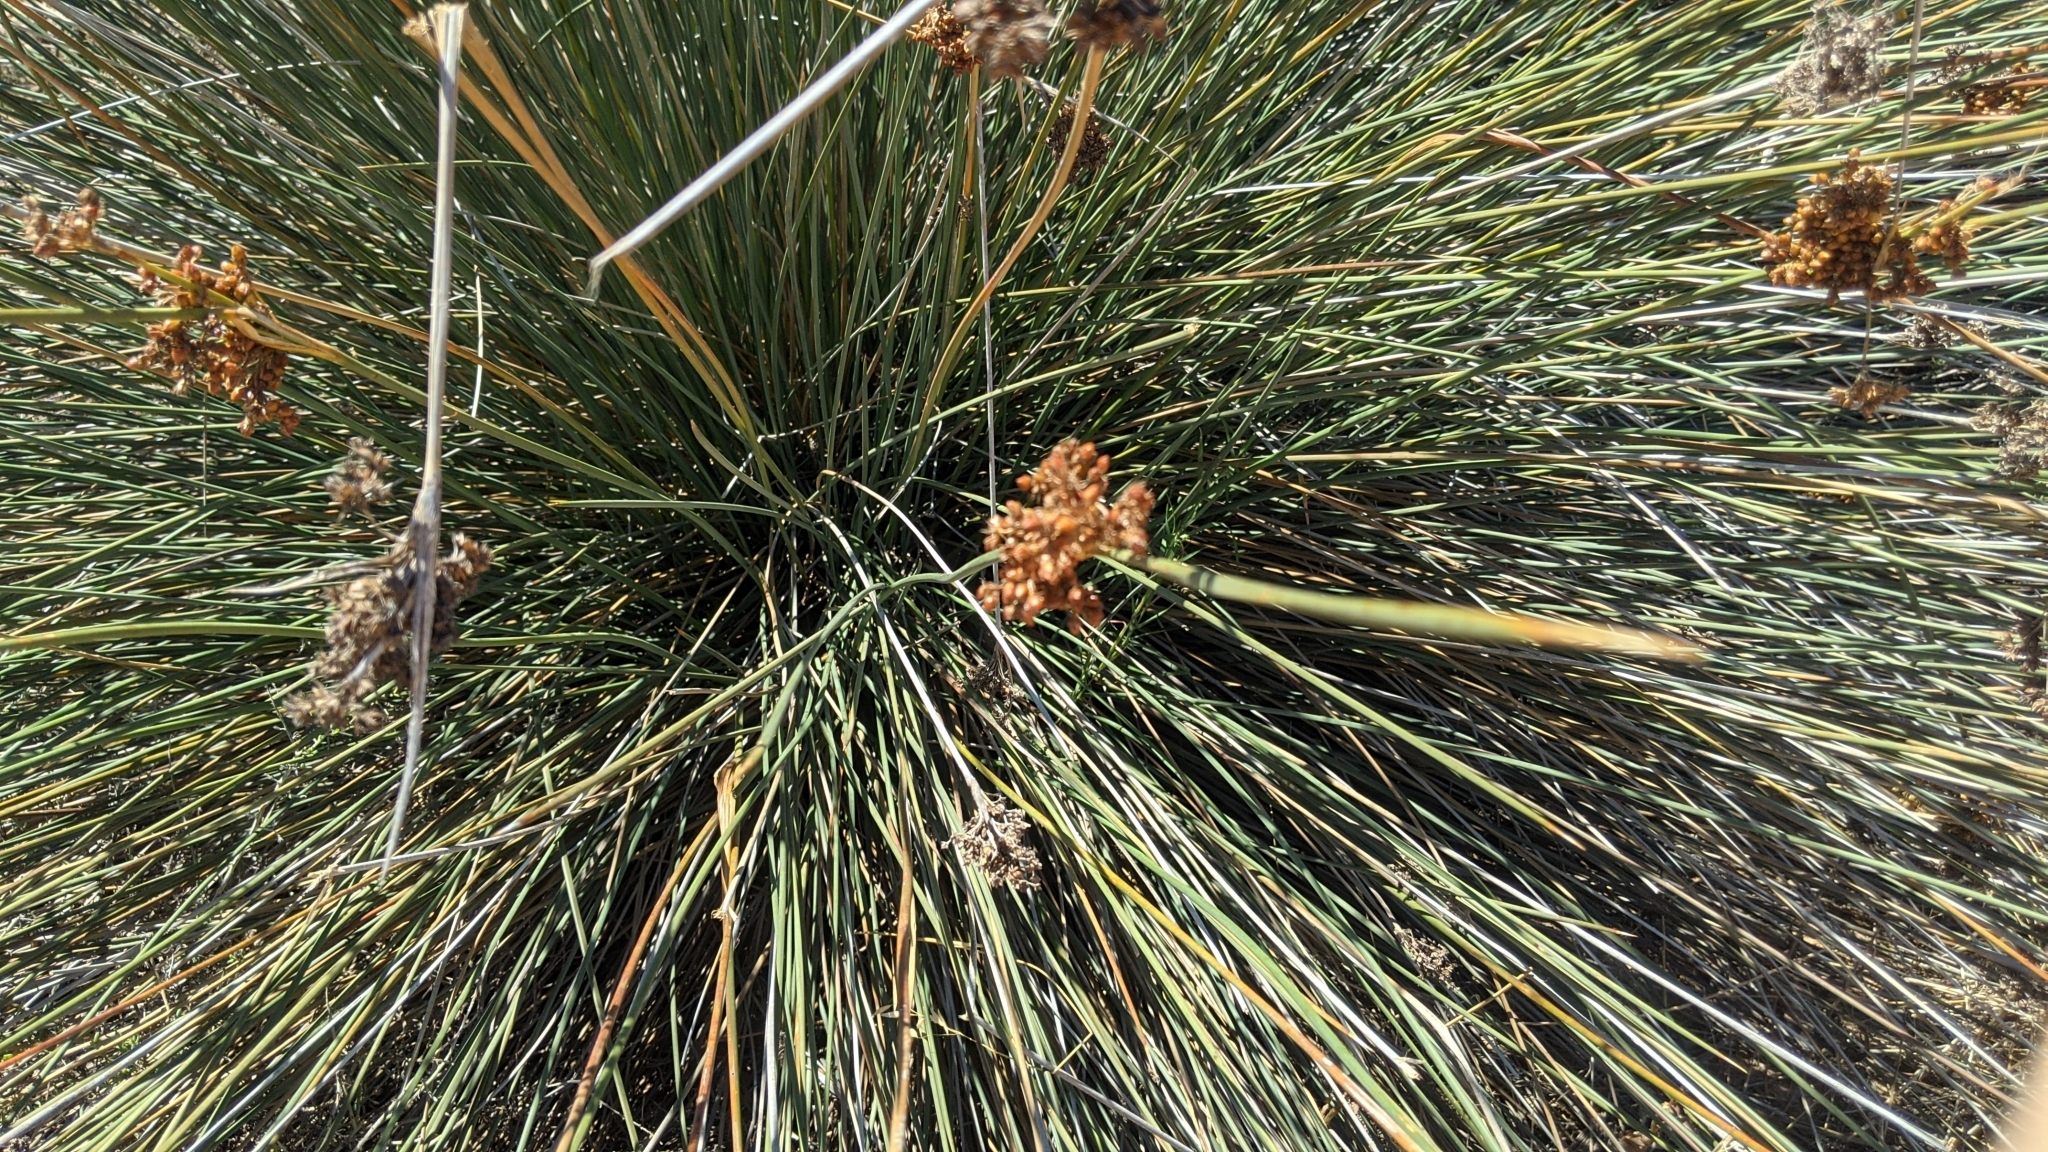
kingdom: Plantae
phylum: Tracheophyta
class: Liliopsida
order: Poales
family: Juncaceae
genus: Juncus
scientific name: Juncus acutus
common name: Sharp rush
